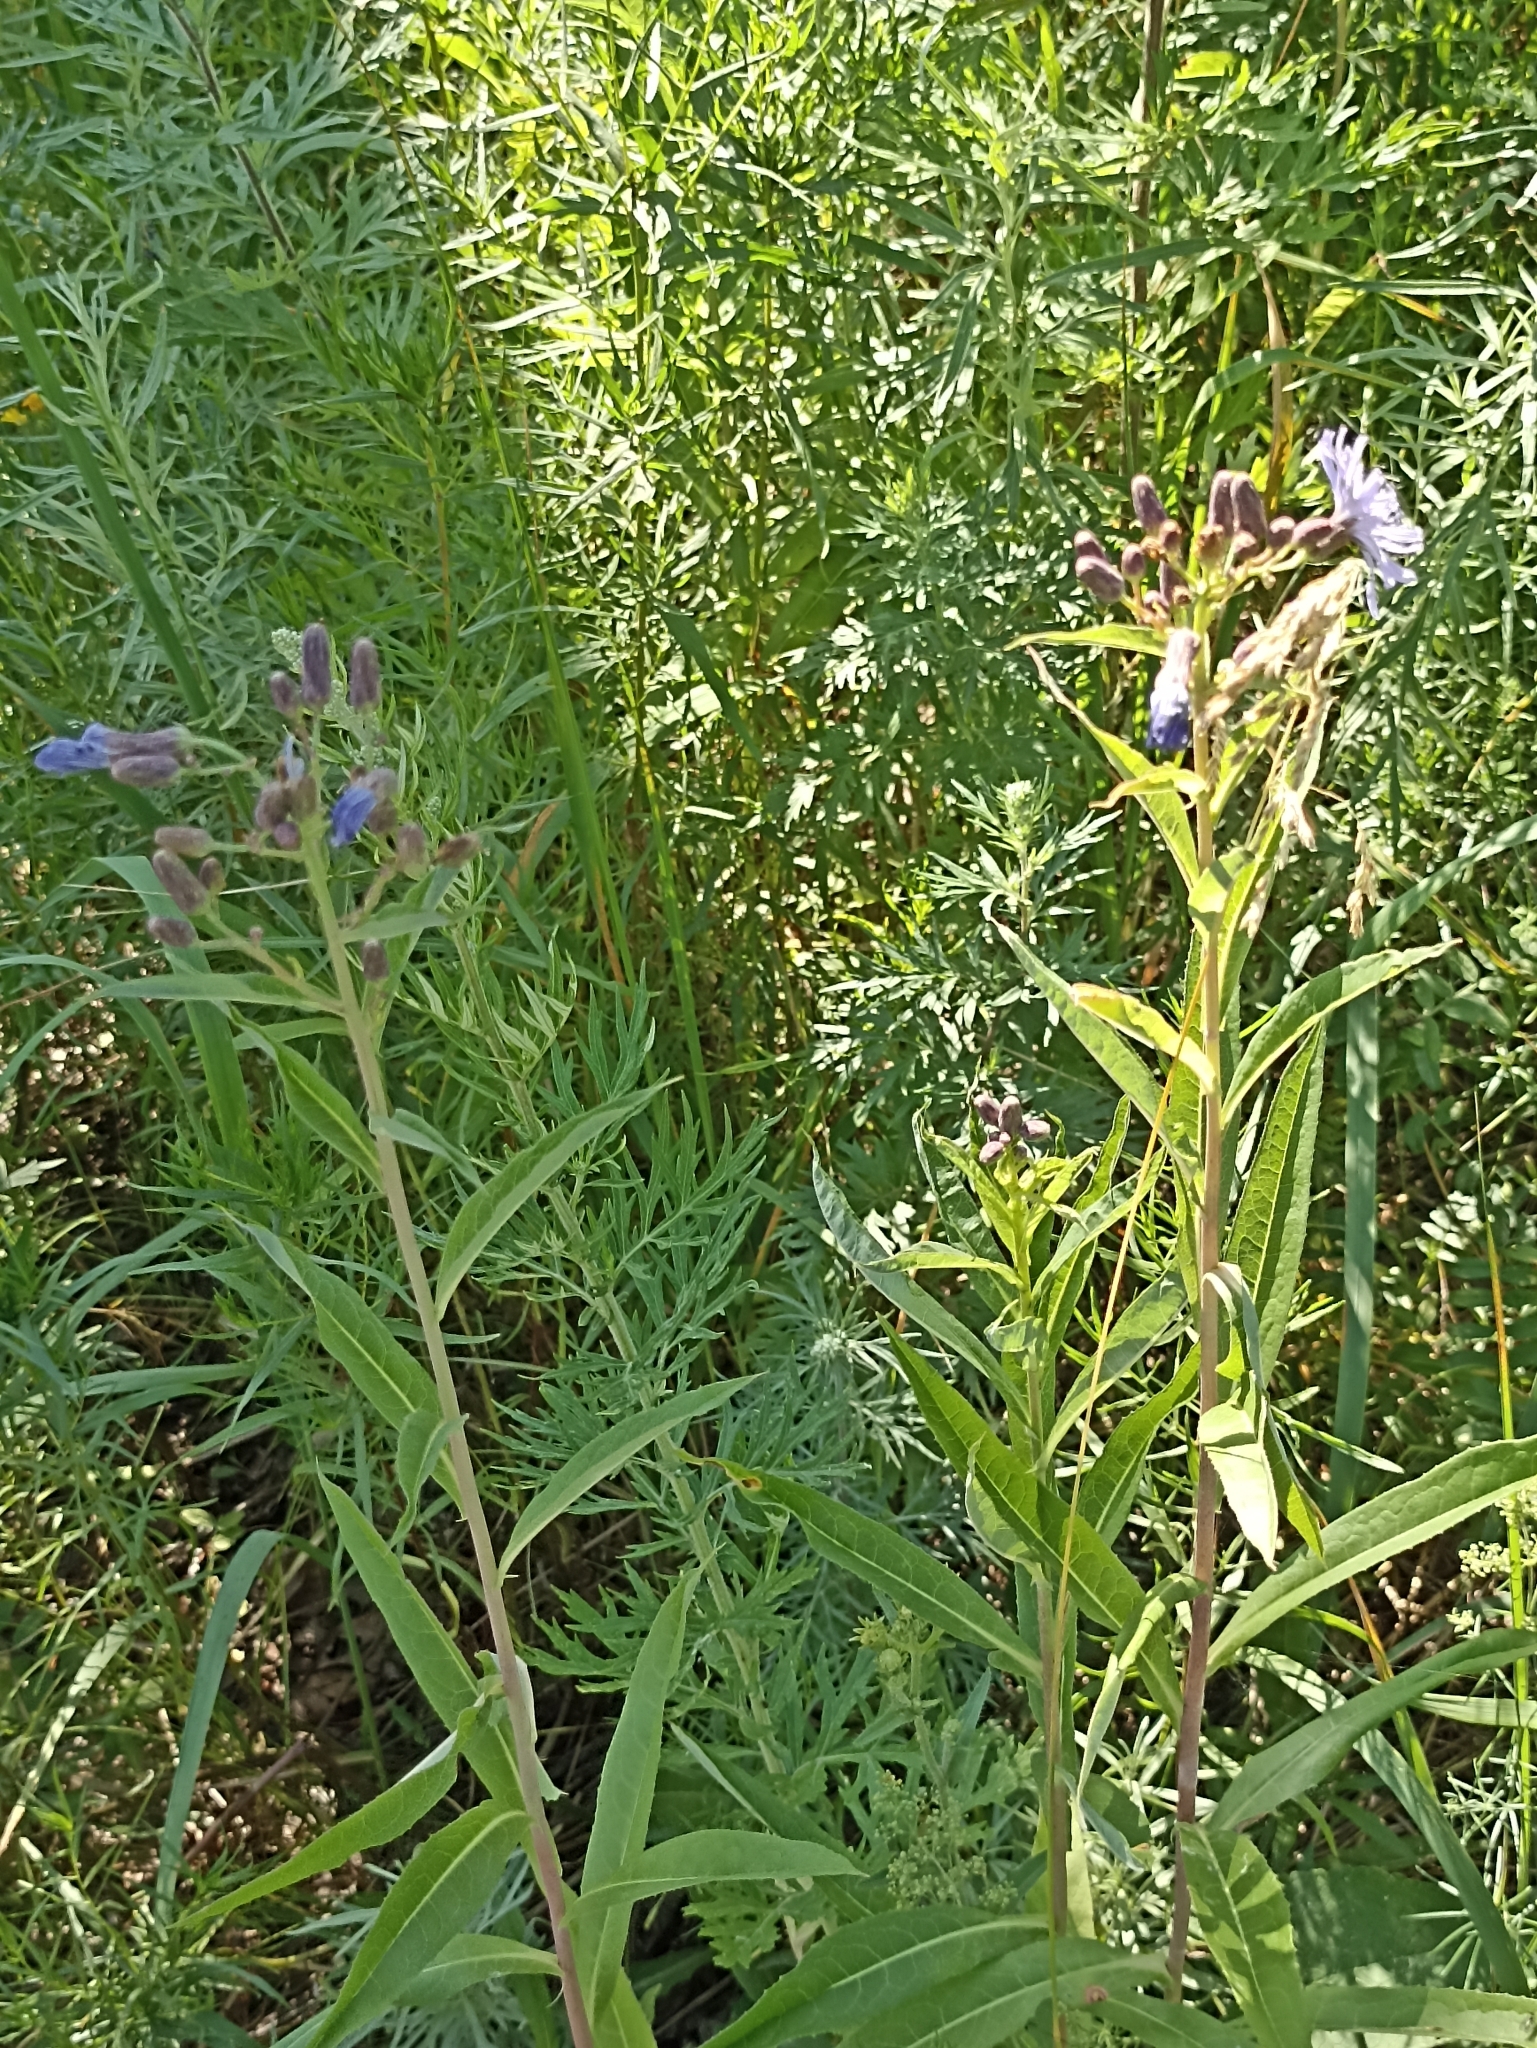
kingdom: Plantae
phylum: Tracheophyta
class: Magnoliopsida
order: Asterales
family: Asteraceae
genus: Lactuca
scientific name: Lactuca tatarica
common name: Blue lettuce
